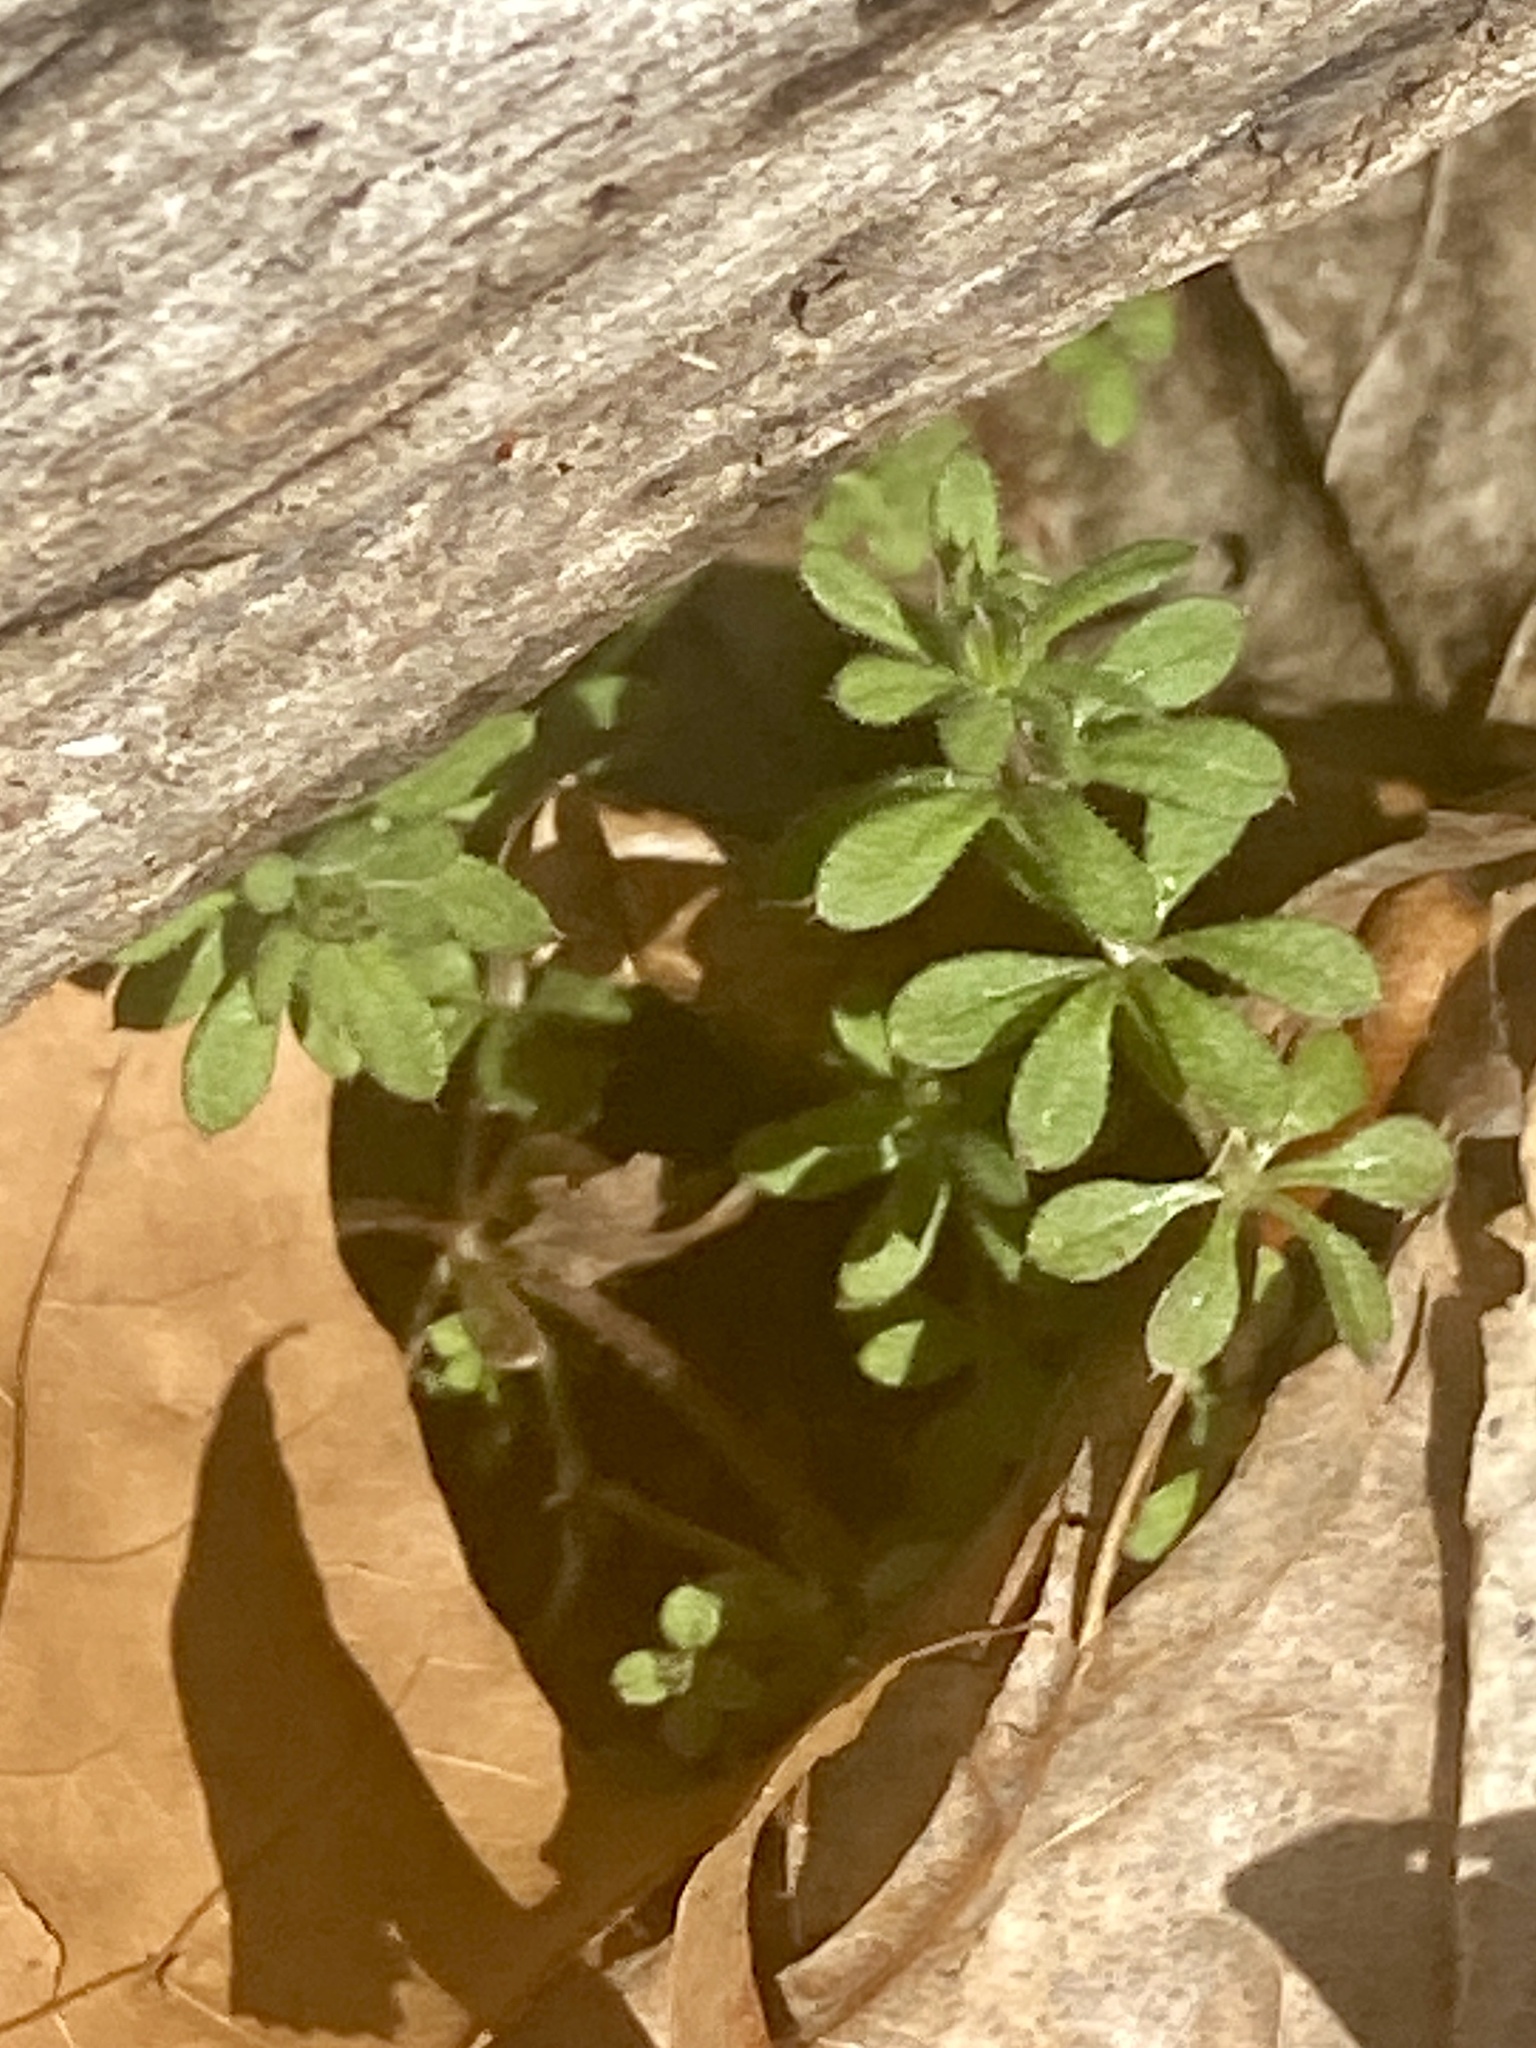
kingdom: Plantae
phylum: Tracheophyta
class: Magnoliopsida
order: Gentianales
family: Rubiaceae
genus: Galium
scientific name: Galium aparine
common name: Cleavers
